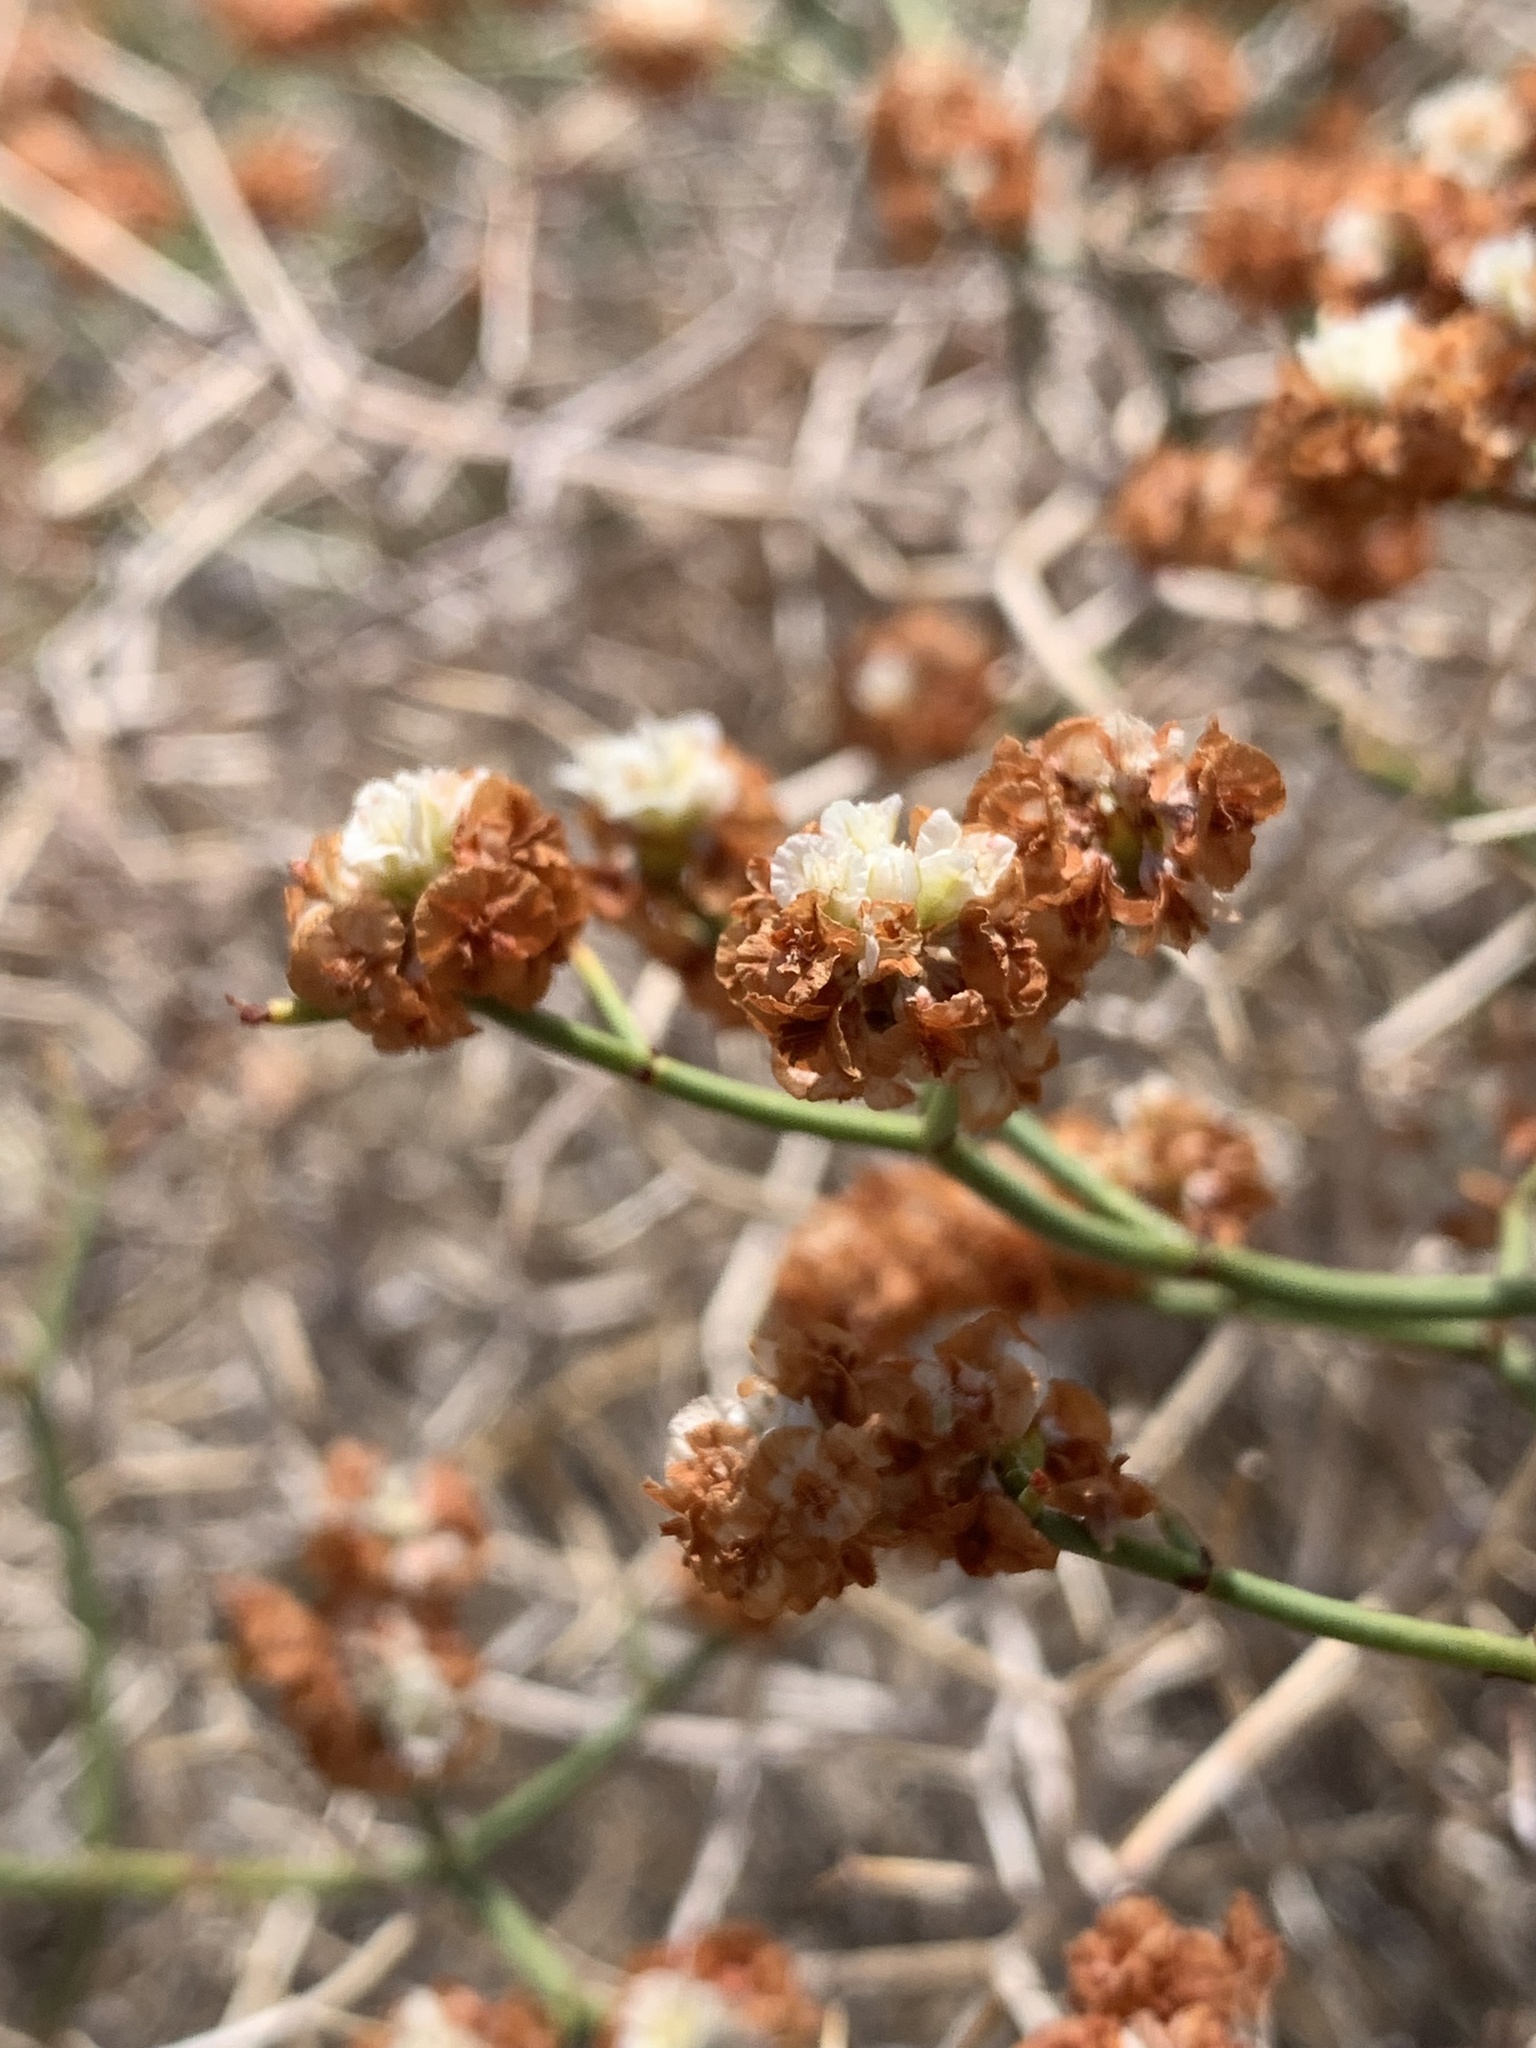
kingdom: Plantae
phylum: Tracheophyta
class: Magnoliopsida
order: Caryophyllales
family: Polygonaceae
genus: Eriogonum
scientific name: Eriogonum heermannii
